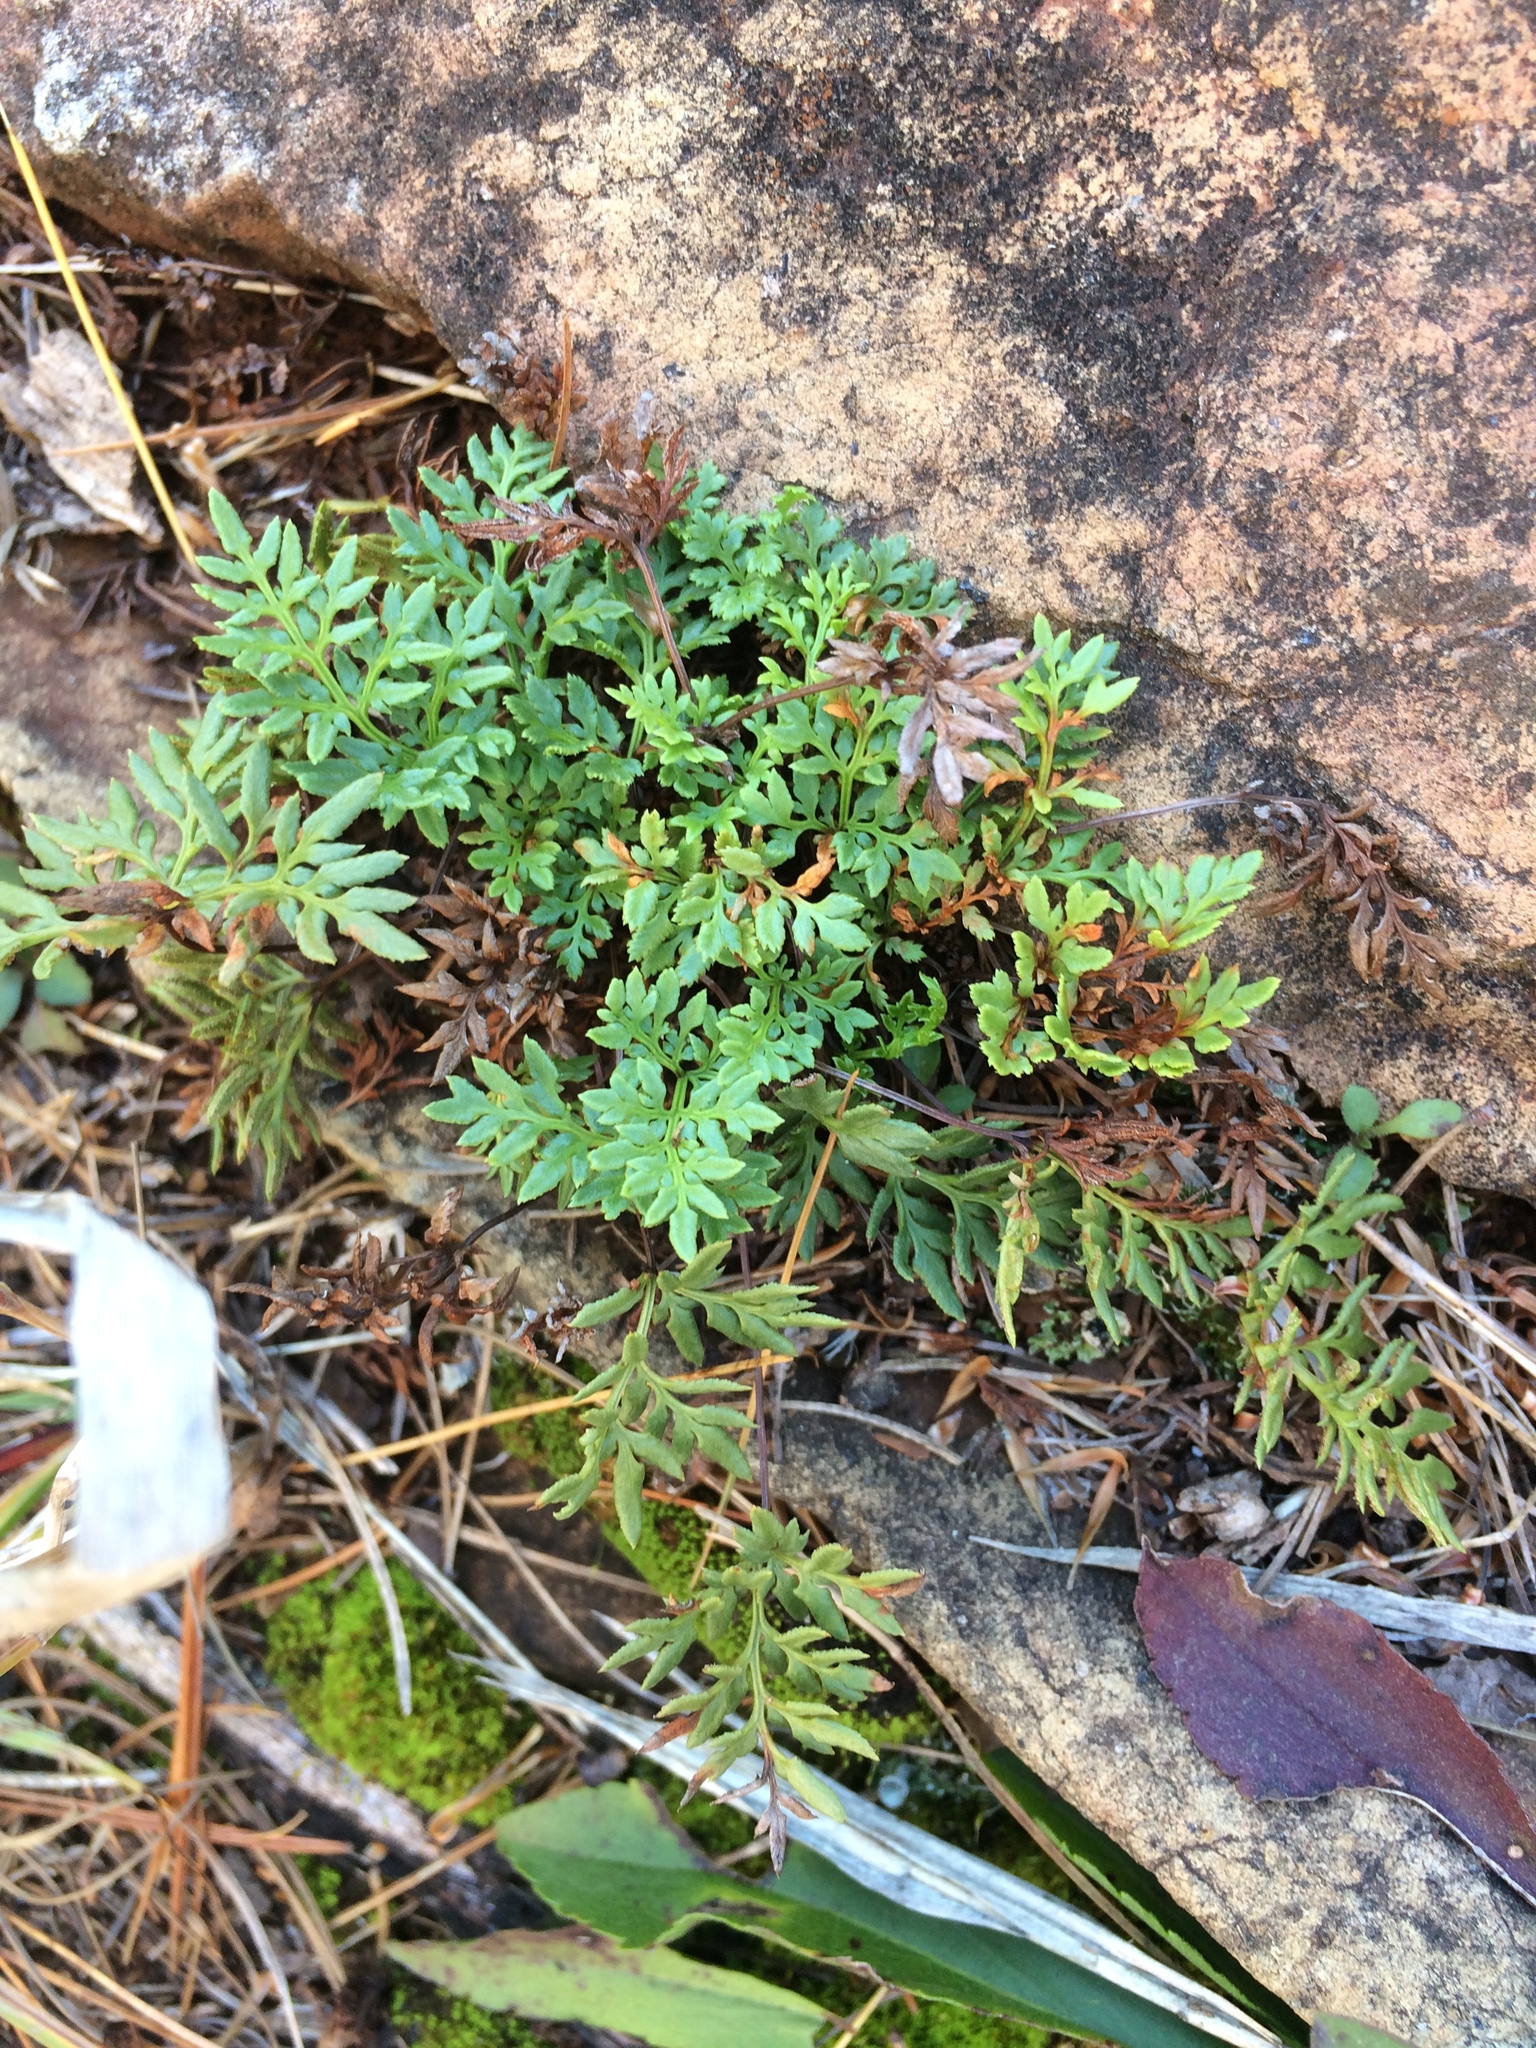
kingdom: Plantae
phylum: Tracheophyta
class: Polypodiopsida
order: Polypodiales
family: Pteridaceae
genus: Aspidotis
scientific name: Aspidotis densa
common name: Indian's dream
